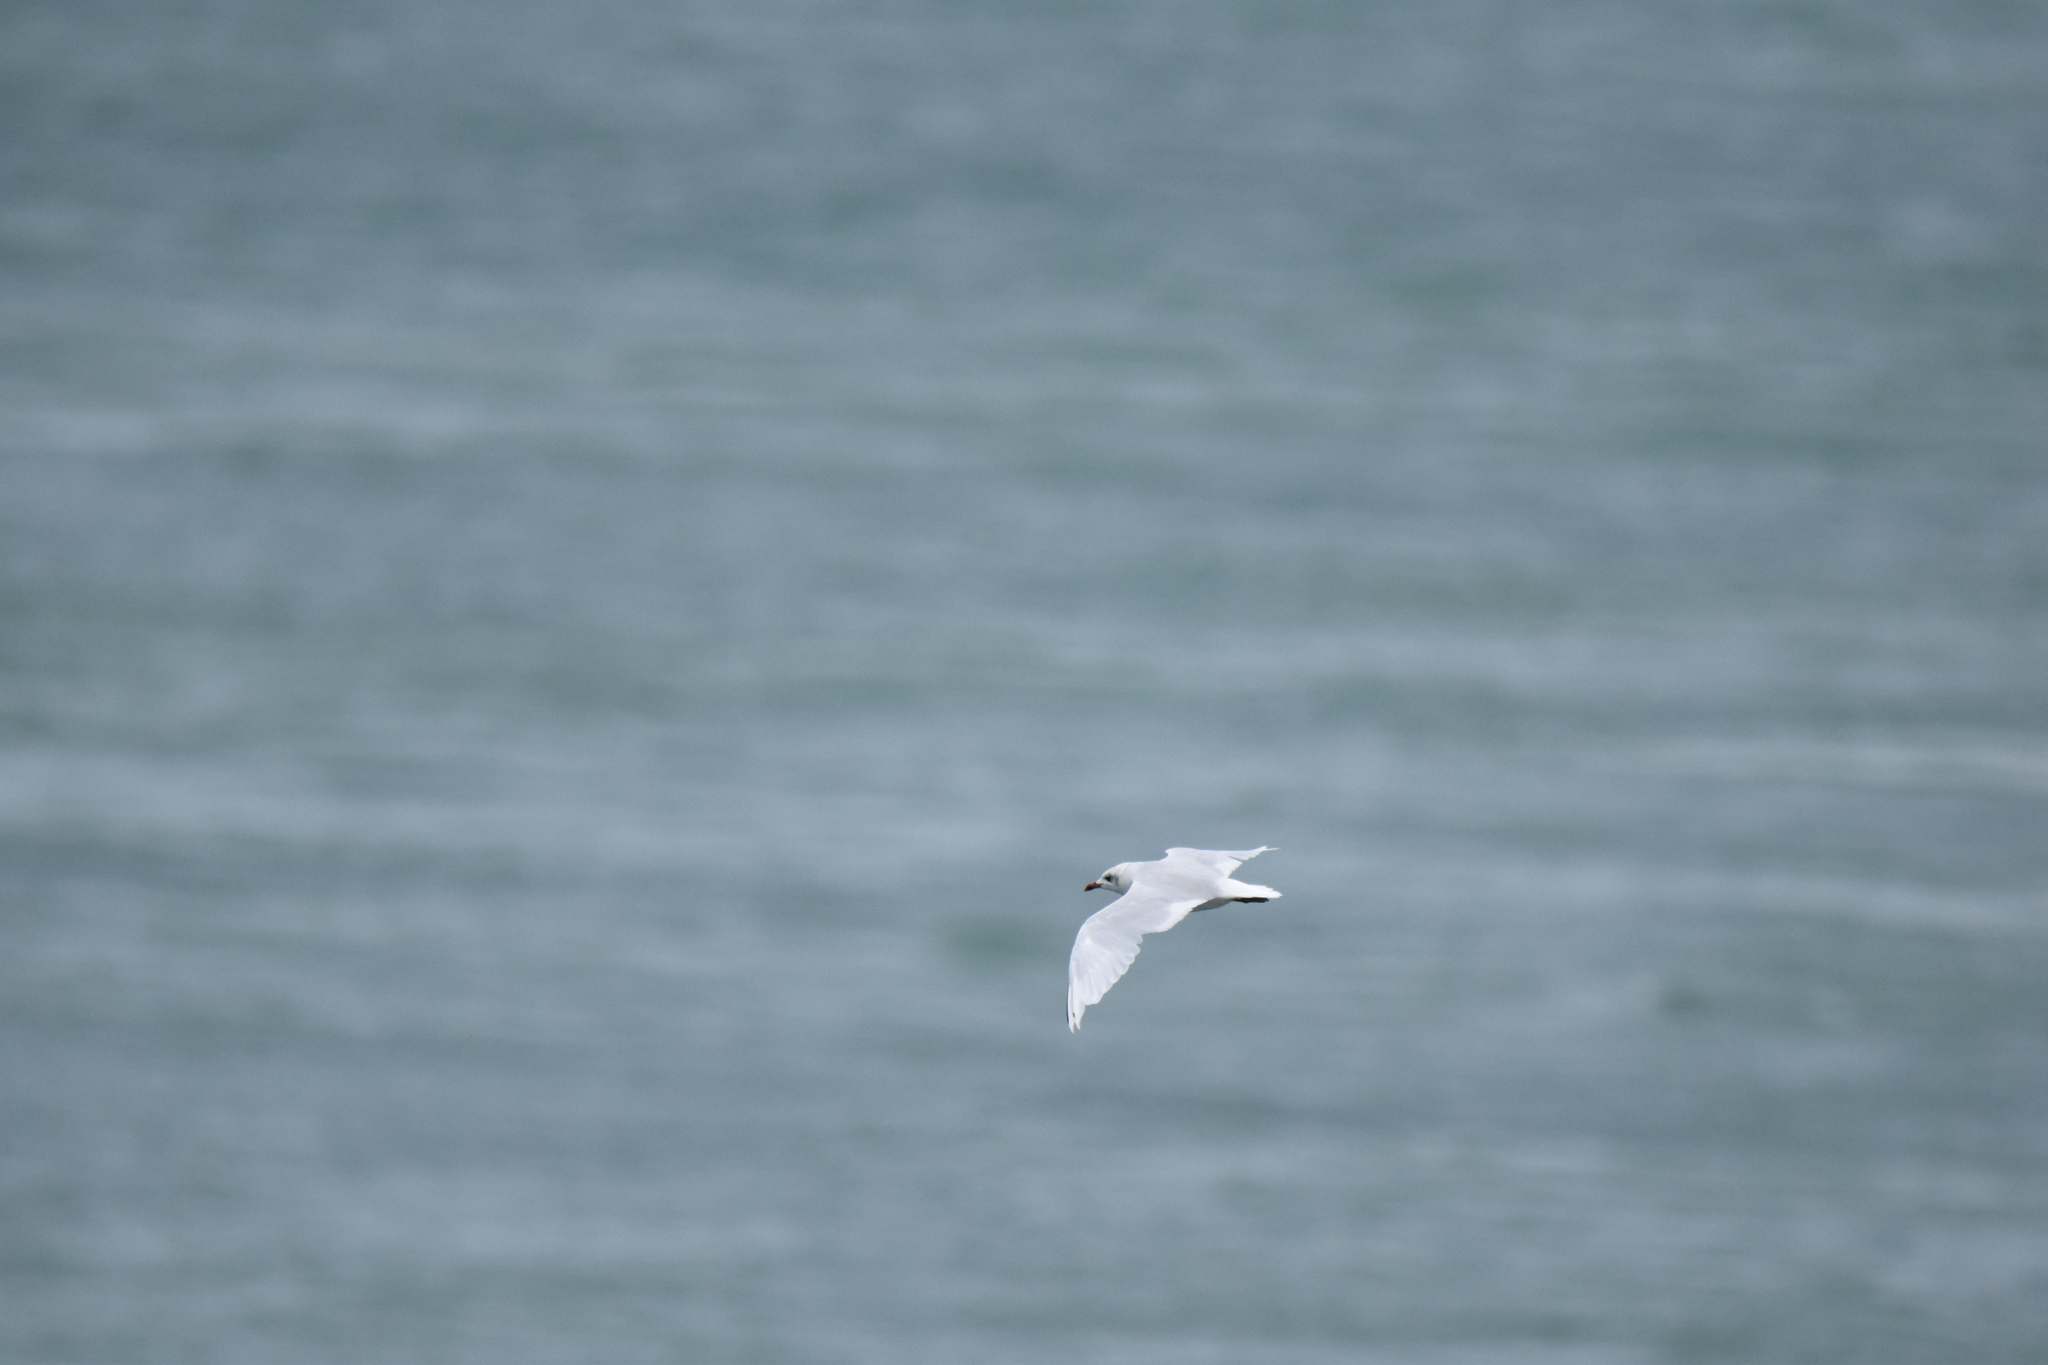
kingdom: Animalia
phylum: Chordata
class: Aves
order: Charadriiformes
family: Laridae
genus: Ichthyaetus
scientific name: Ichthyaetus melanocephalus
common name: Mediterranean gull
